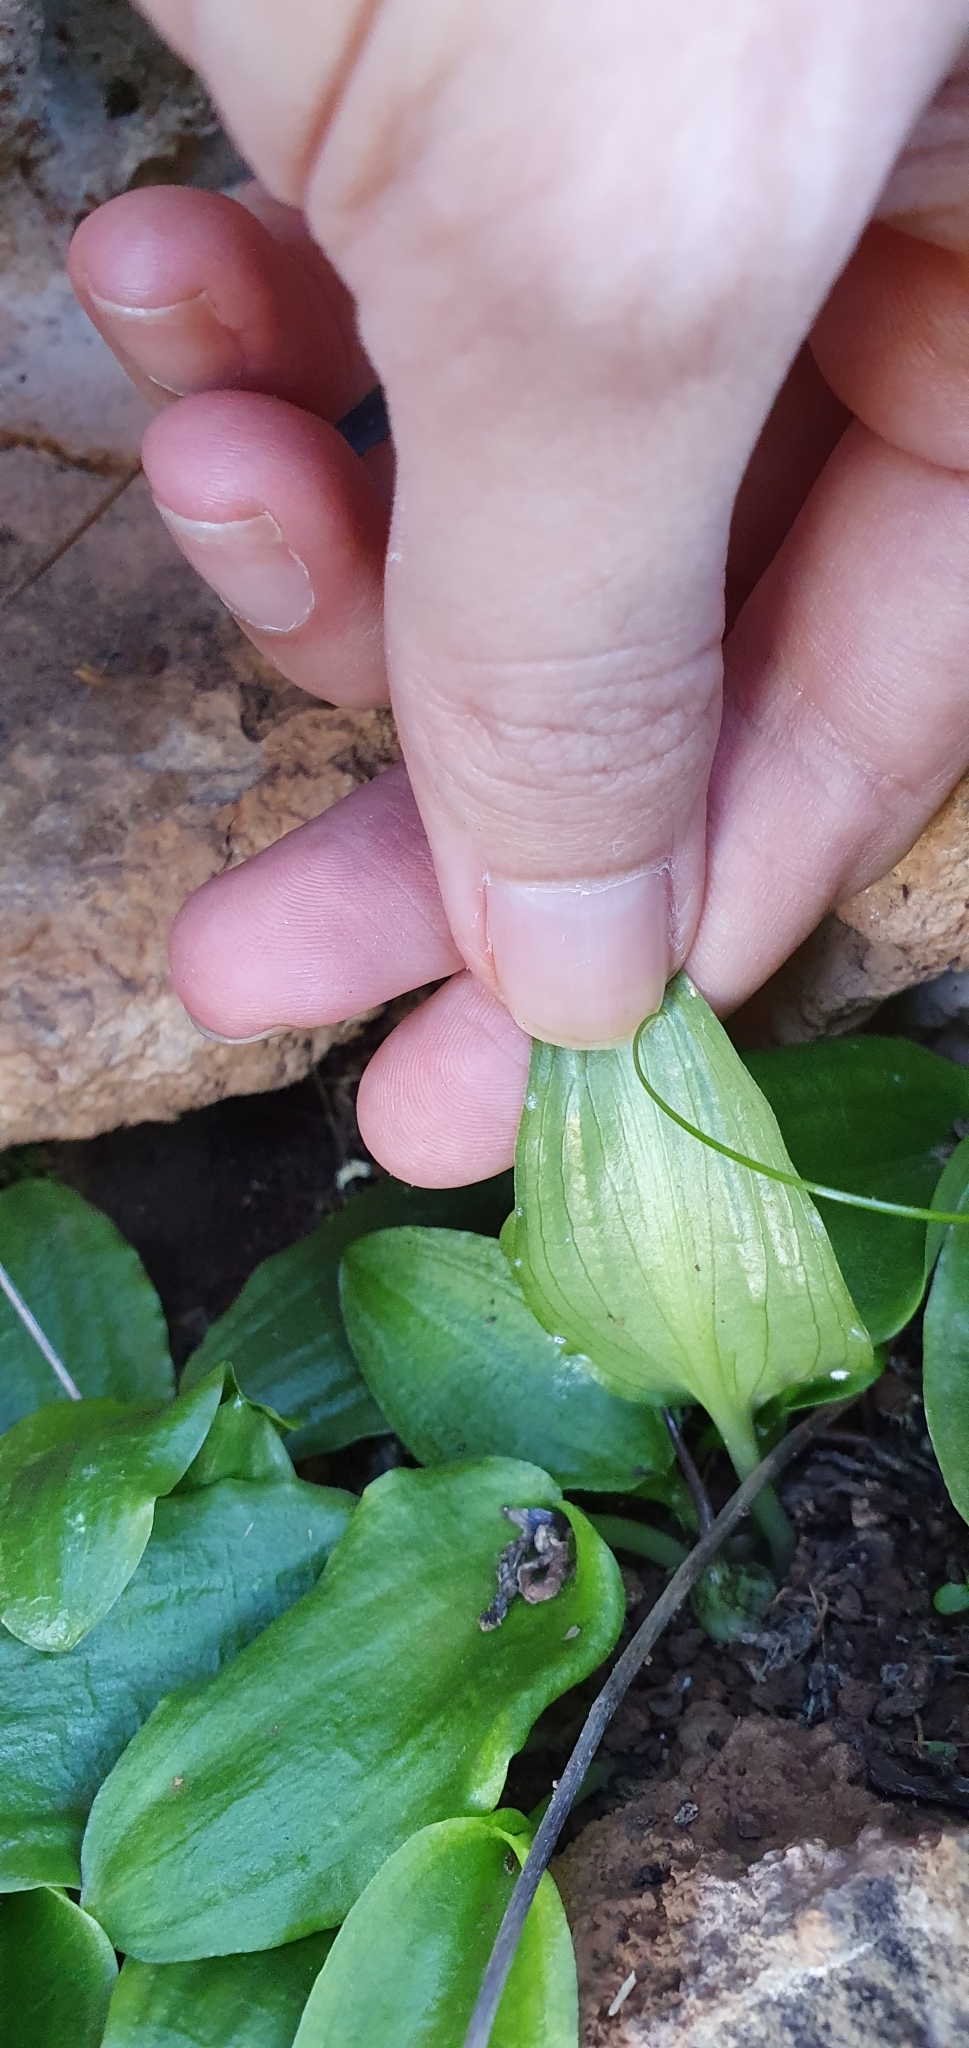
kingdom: Plantae
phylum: Tracheophyta
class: Liliopsida
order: Alismatales
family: Araceae
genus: Ambrosina
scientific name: Ambrosina bassii
